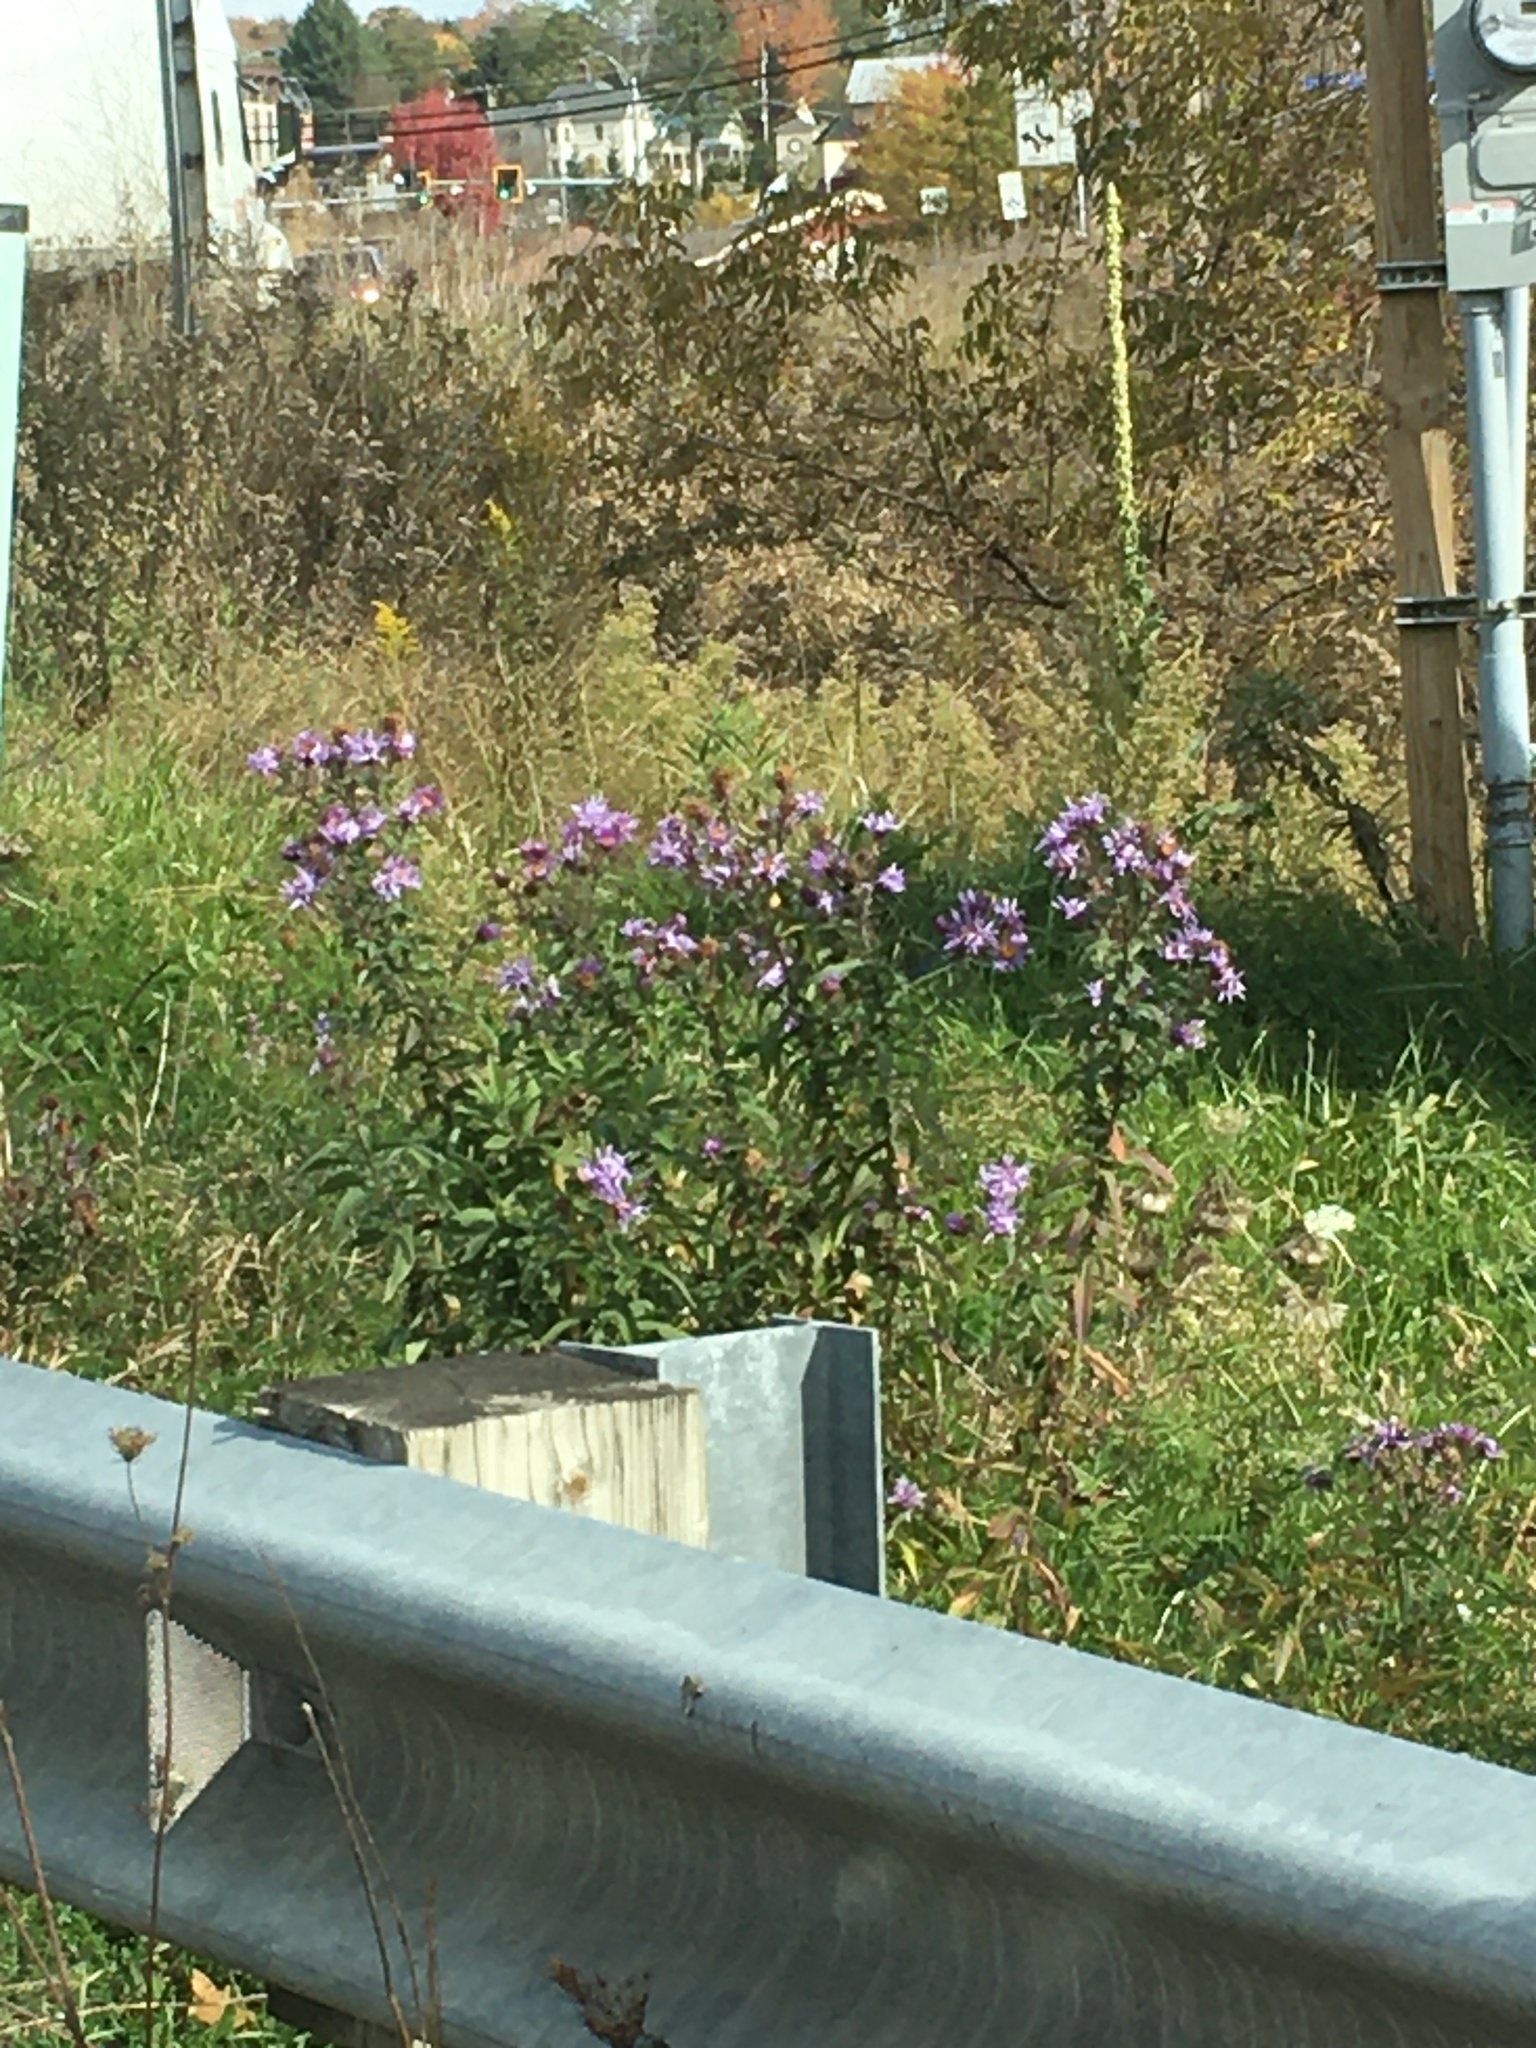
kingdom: Plantae
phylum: Tracheophyta
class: Magnoliopsida
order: Asterales
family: Asteraceae
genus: Symphyotrichum
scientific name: Symphyotrichum novae-angliae
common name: Michaelmas daisy
